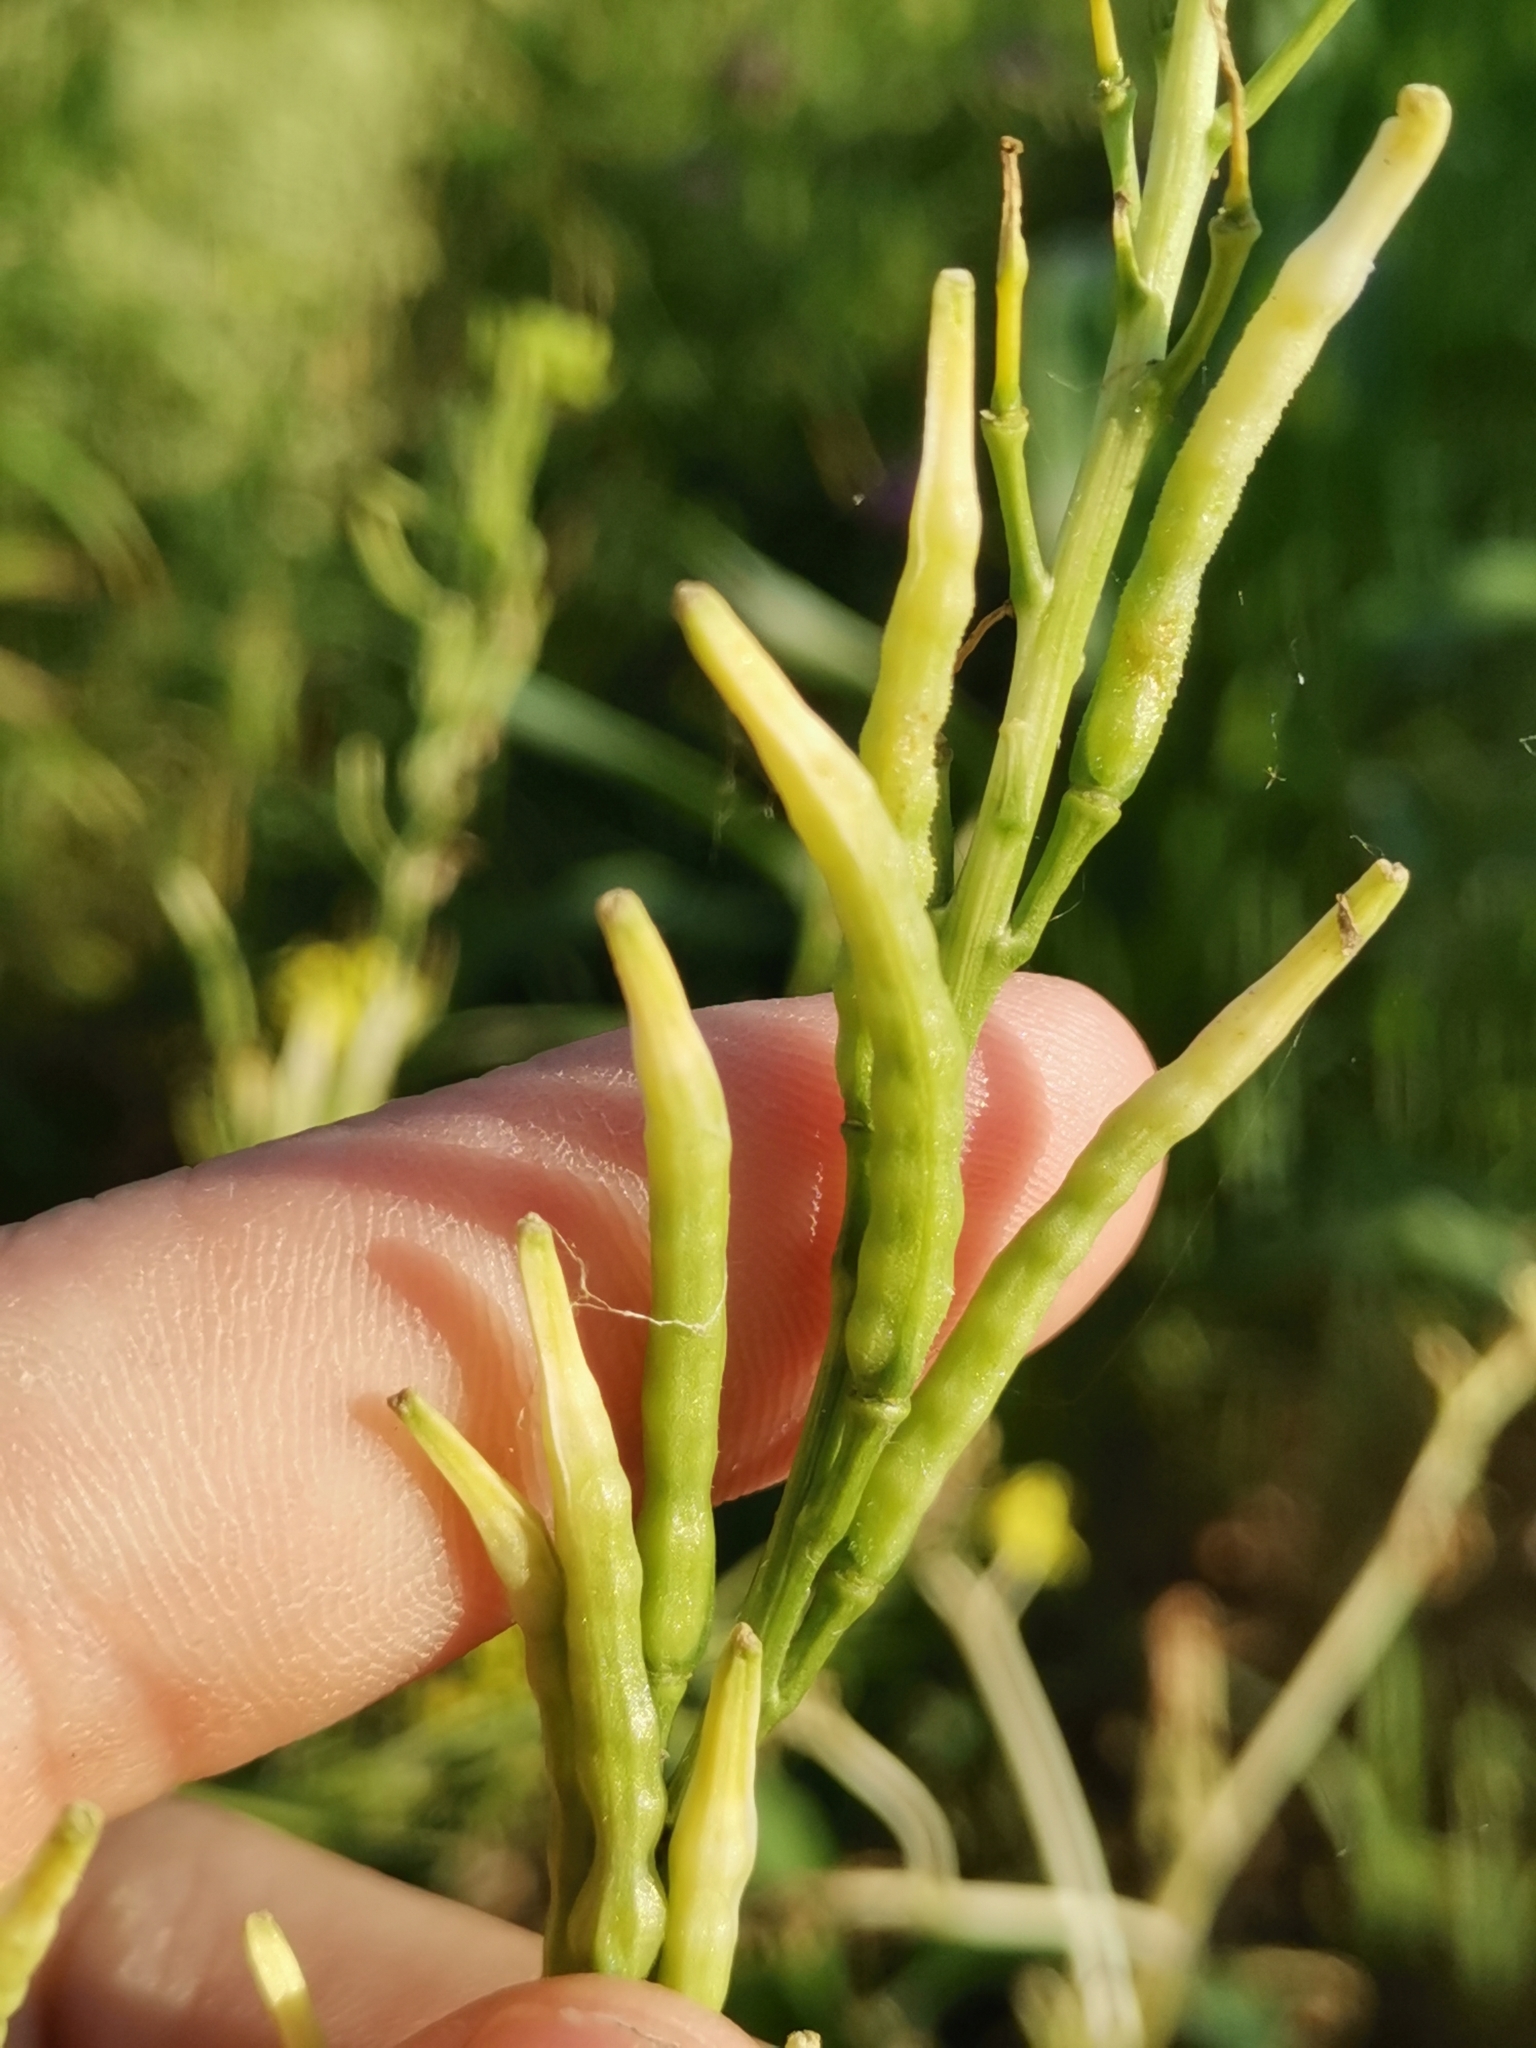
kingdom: Plantae
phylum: Tracheophyta
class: Magnoliopsida
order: Brassicales
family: Brassicaceae
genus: Sinapis
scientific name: Sinapis arvensis
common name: Charlock
